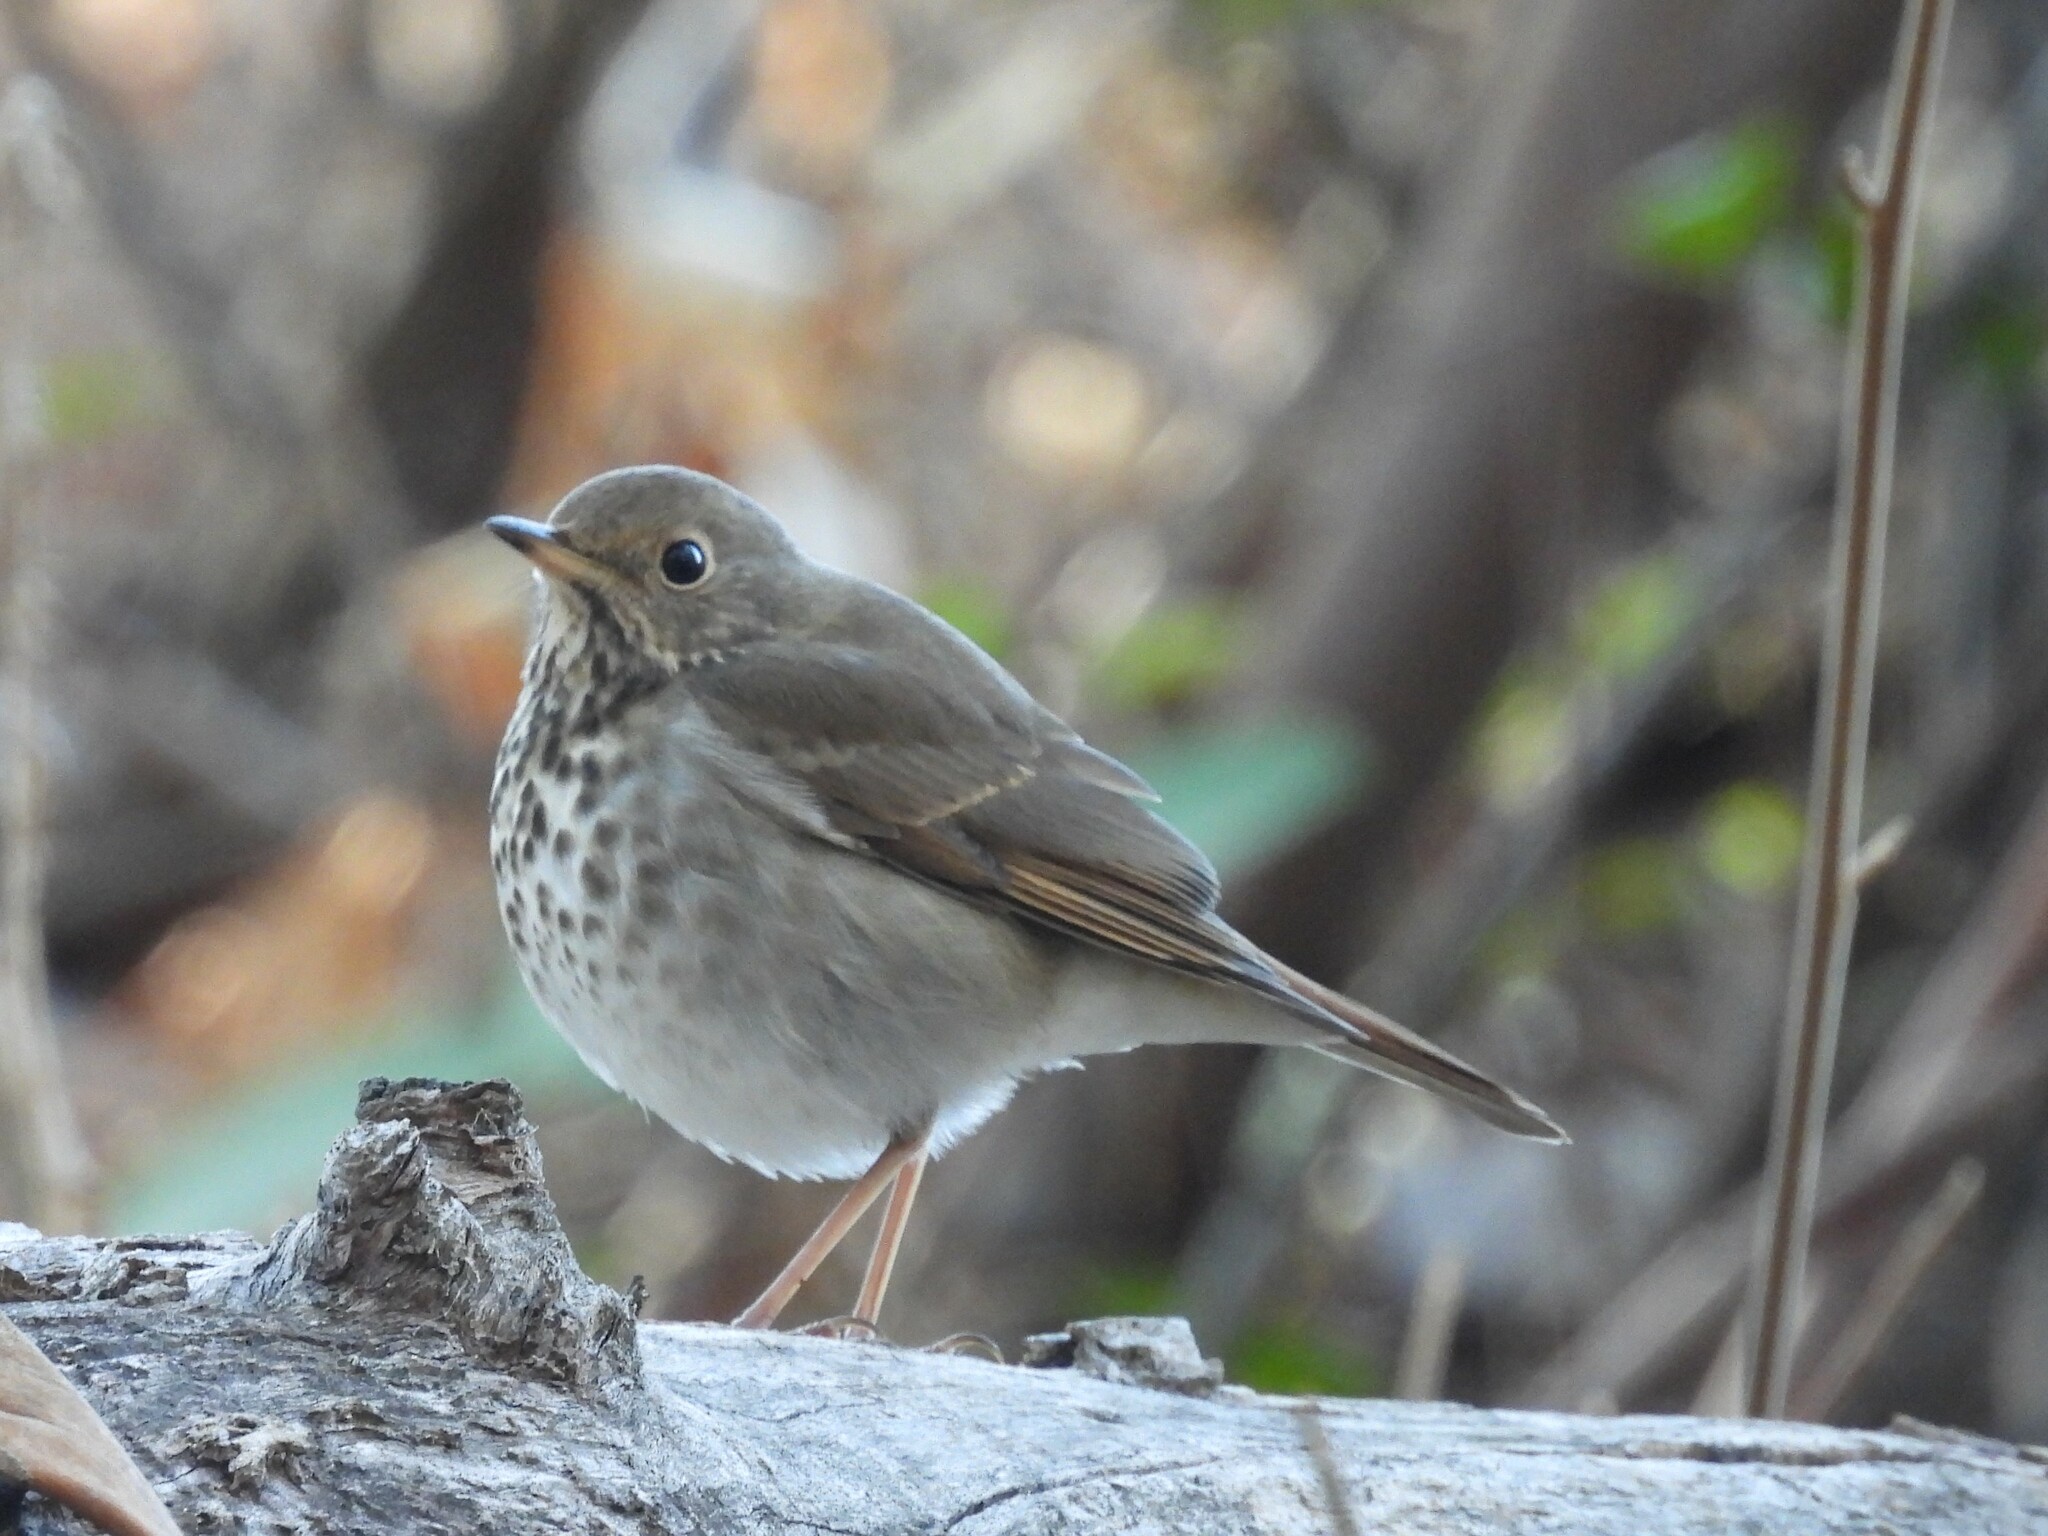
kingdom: Animalia
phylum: Chordata
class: Aves
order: Passeriformes
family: Turdidae
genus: Catharus
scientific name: Catharus guttatus
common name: Hermit thrush
